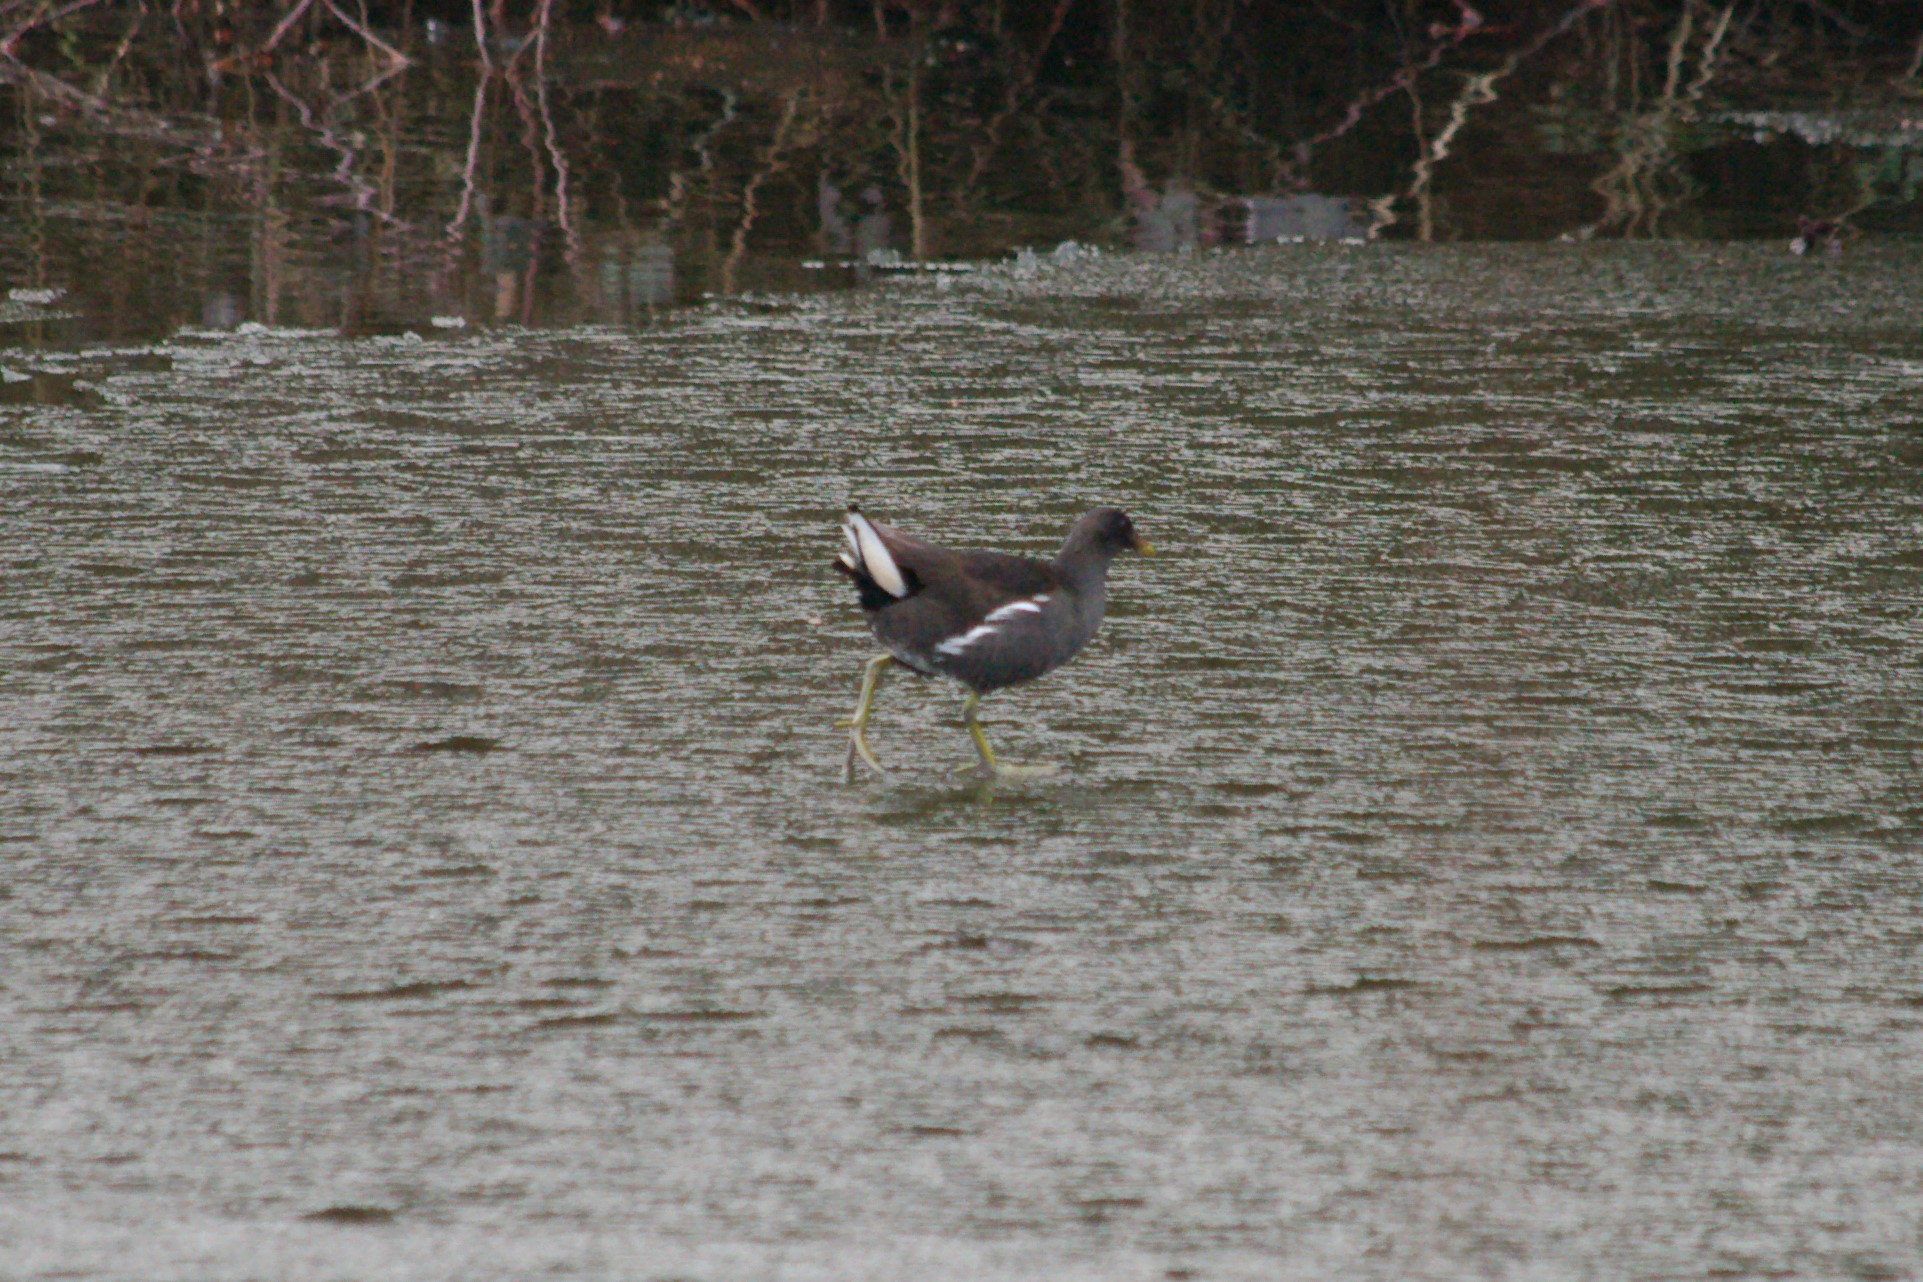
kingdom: Animalia
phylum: Chordata
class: Aves
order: Gruiformes
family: Rallidae
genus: Gallinula
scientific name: Gallinula chloropus
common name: Common moorhen
